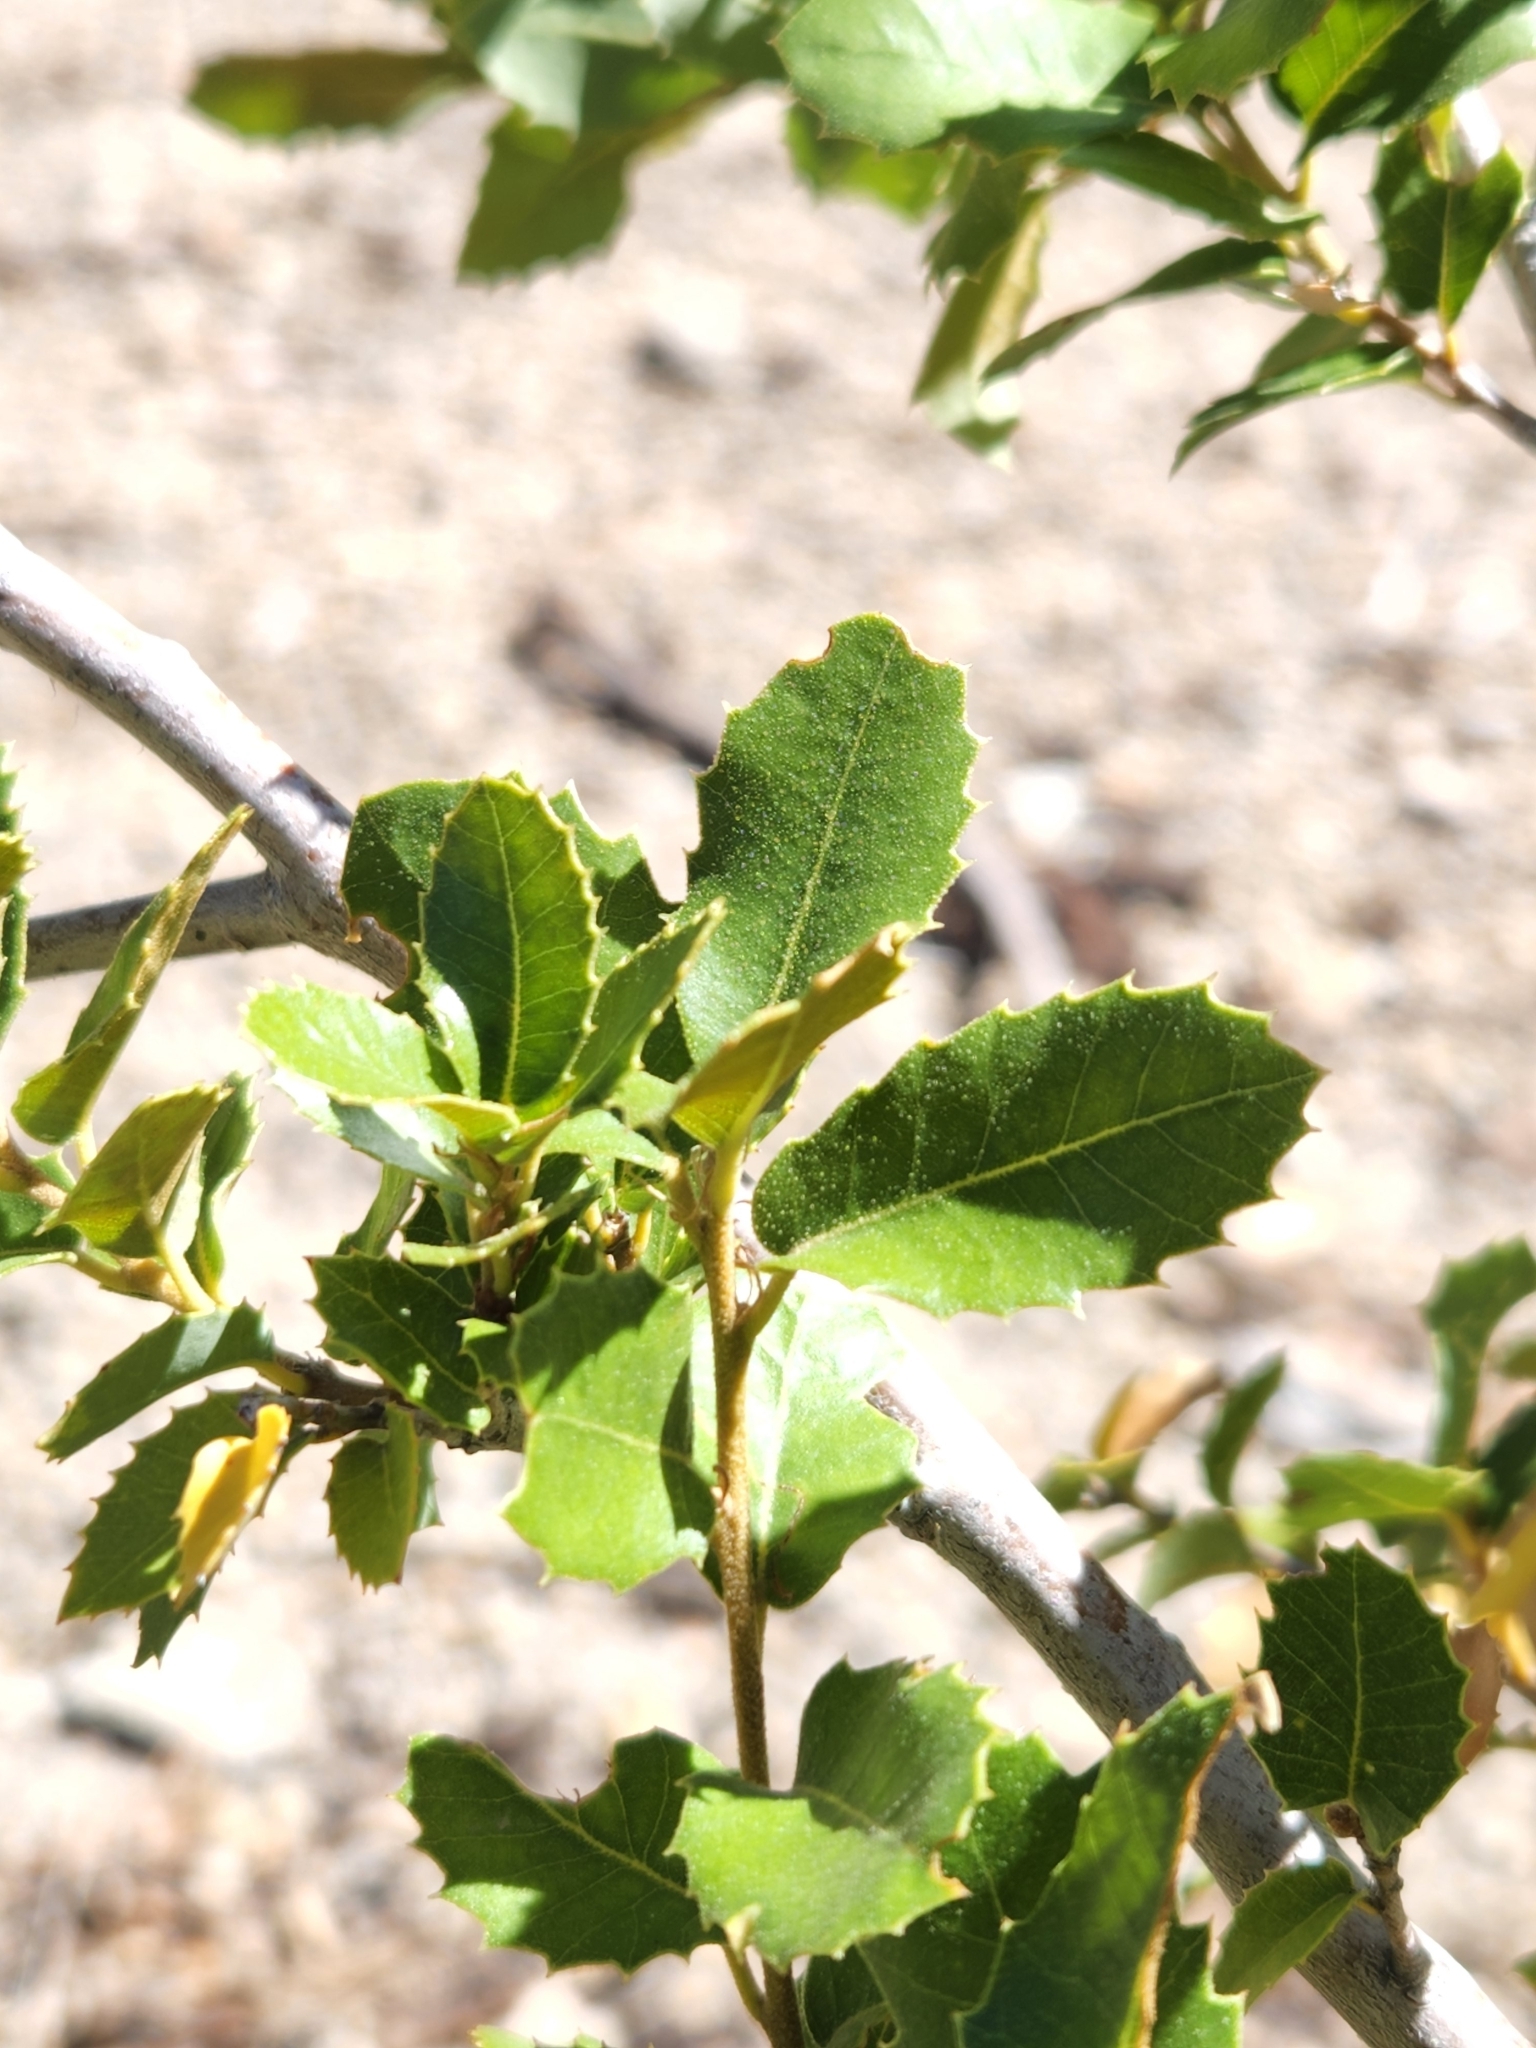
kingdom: Plantae
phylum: Tracheophyta
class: Magnoliopsida
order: Fagales
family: Fagaceae
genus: Quercus
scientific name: Quercus chrysolepis
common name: Canyon live oak
